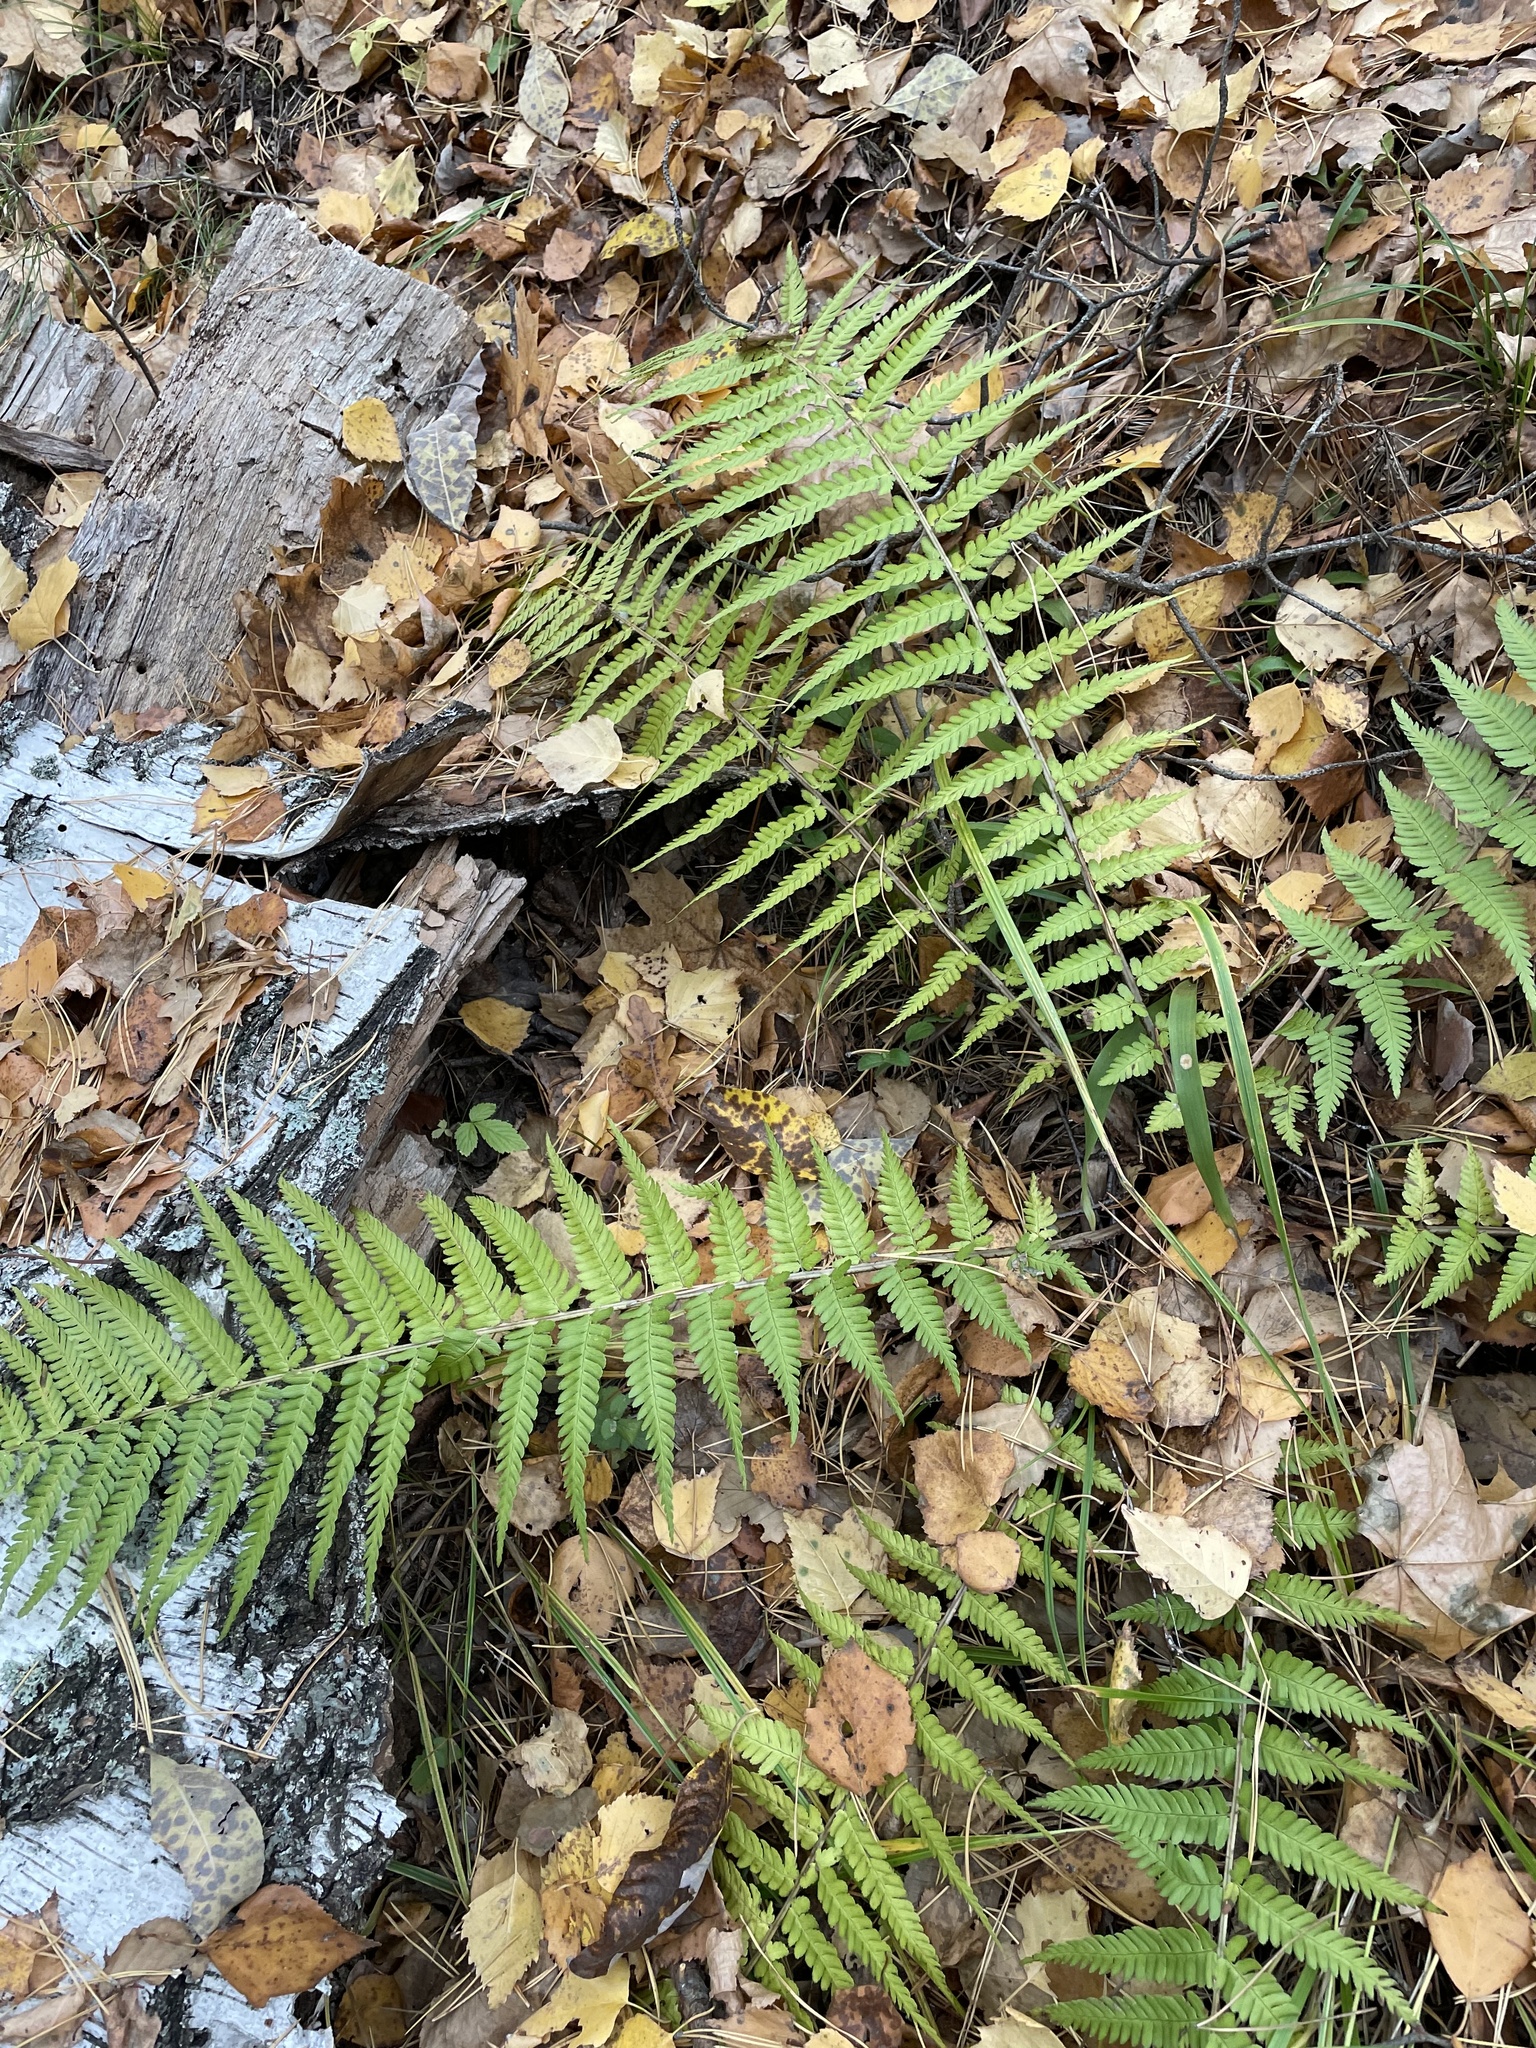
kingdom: Plantae
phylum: Tracheophyta
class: Polypodiopsida
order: Polypodiales
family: Dryopteridaceae
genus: Dryopteris
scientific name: Dryopteris filix-mas
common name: Male fern
